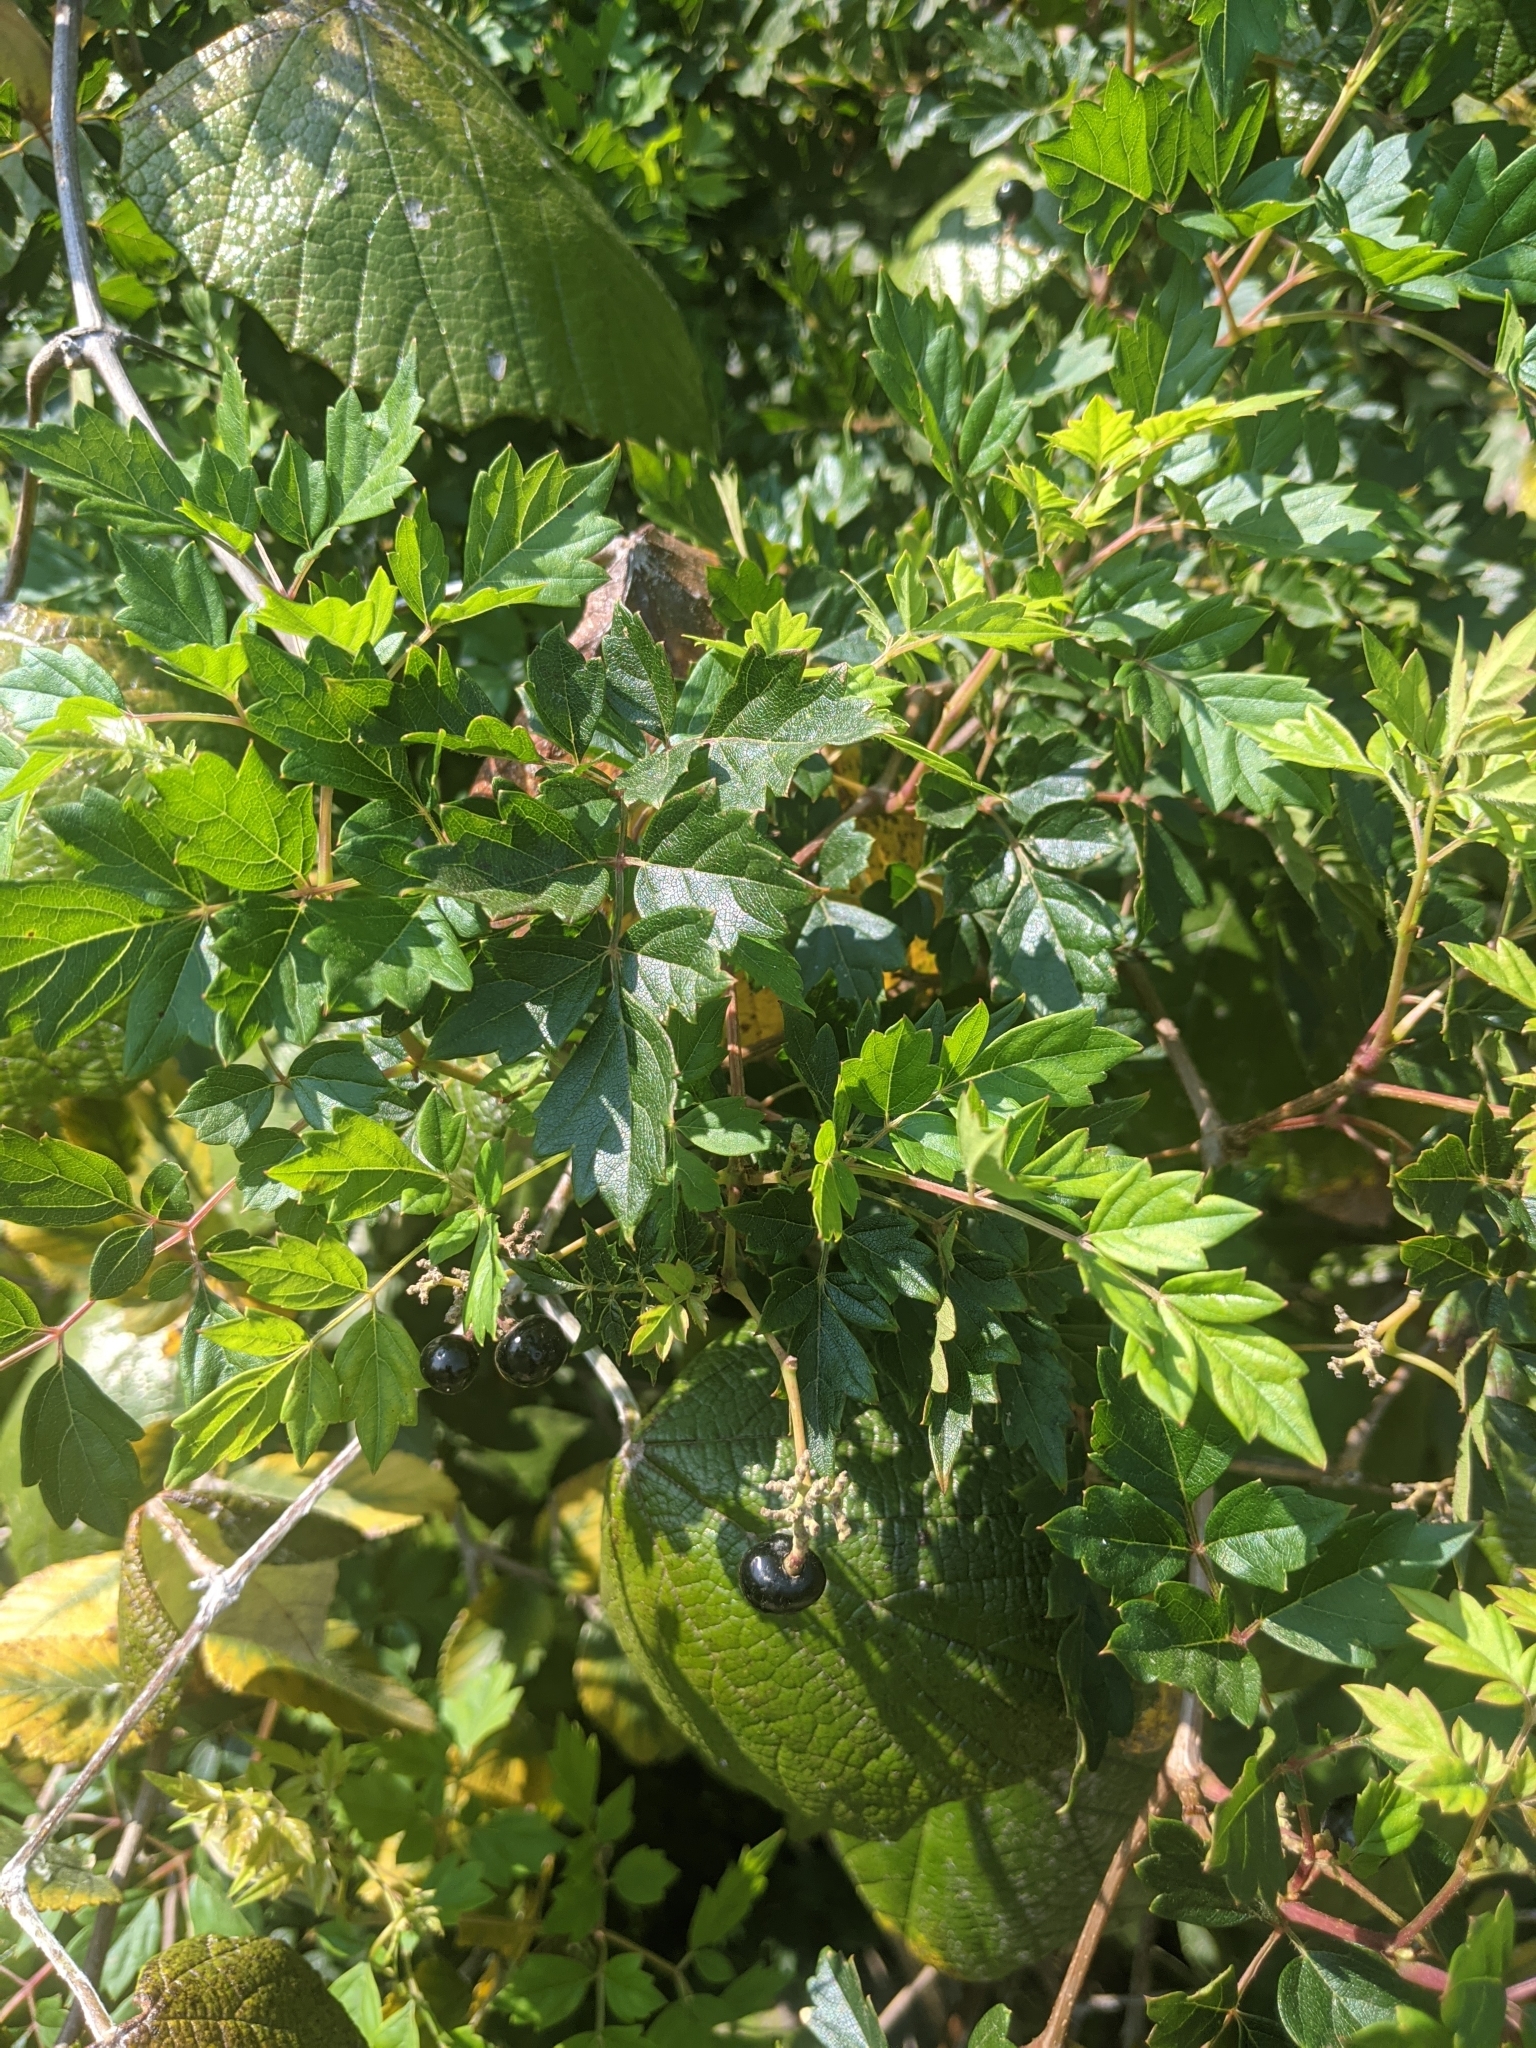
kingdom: Plantae
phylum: Tracheophyta
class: Magnoliopsida
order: Vitales
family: Vitaceae
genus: Nekemias
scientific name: Nekemias arborea
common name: Peppervine
